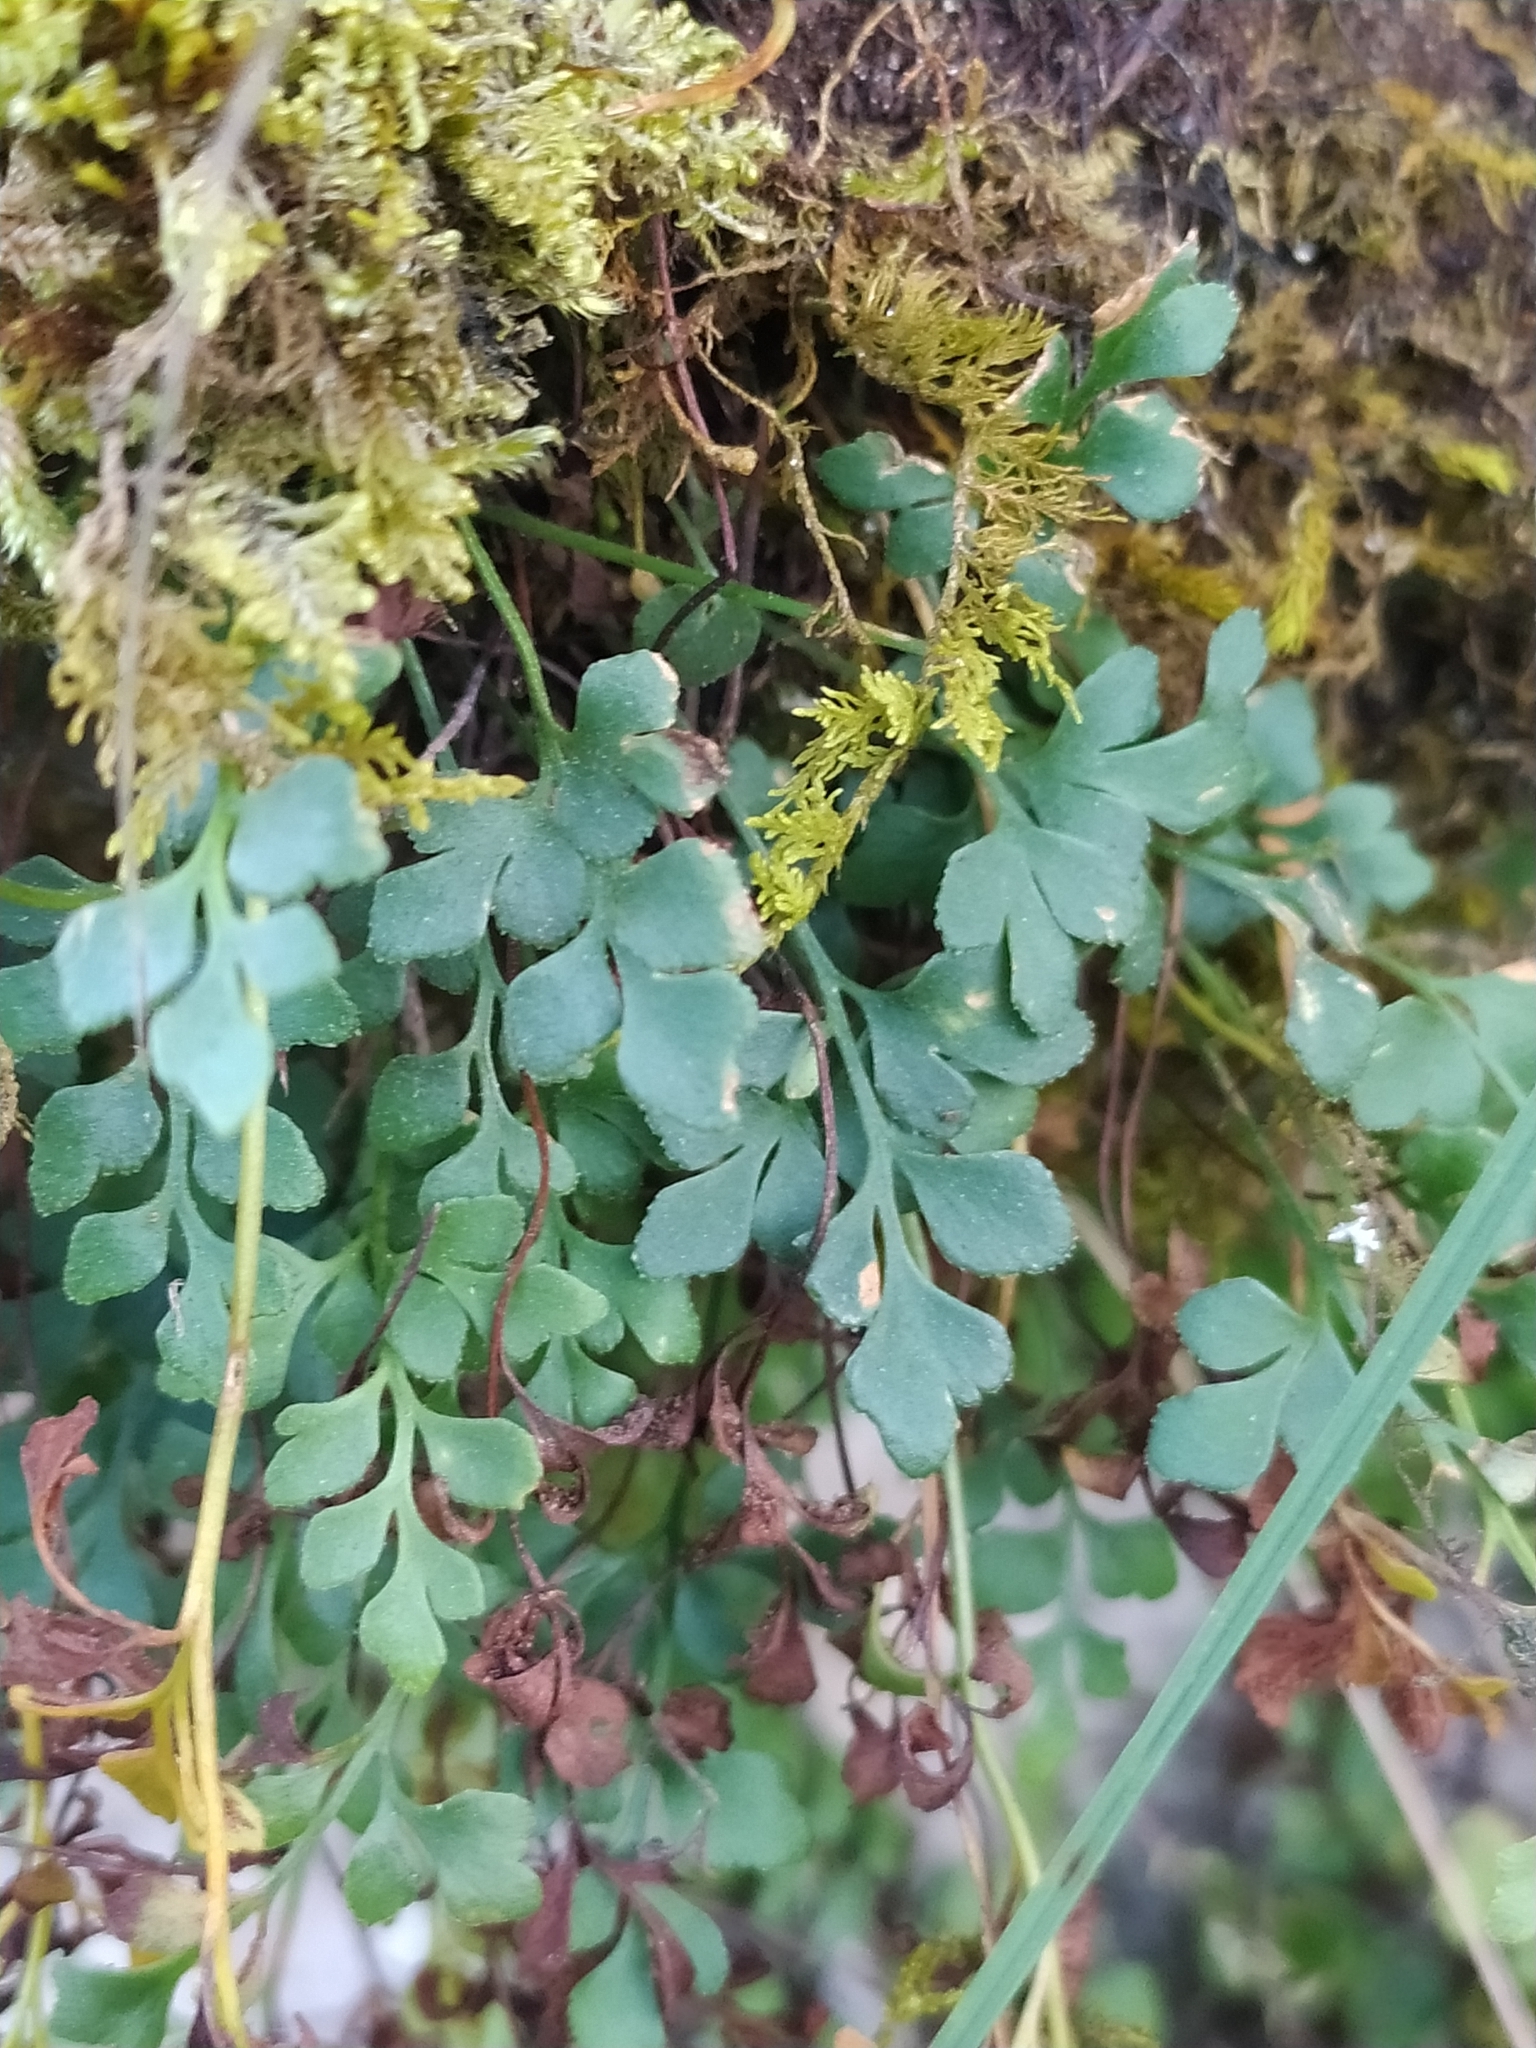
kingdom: Plantae
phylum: Tracheophyta
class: Polypodiopsida
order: Polypodiales
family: Aspleniaceae
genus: Asplenium
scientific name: Asplenium ruta-muraria
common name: Wall-rue
